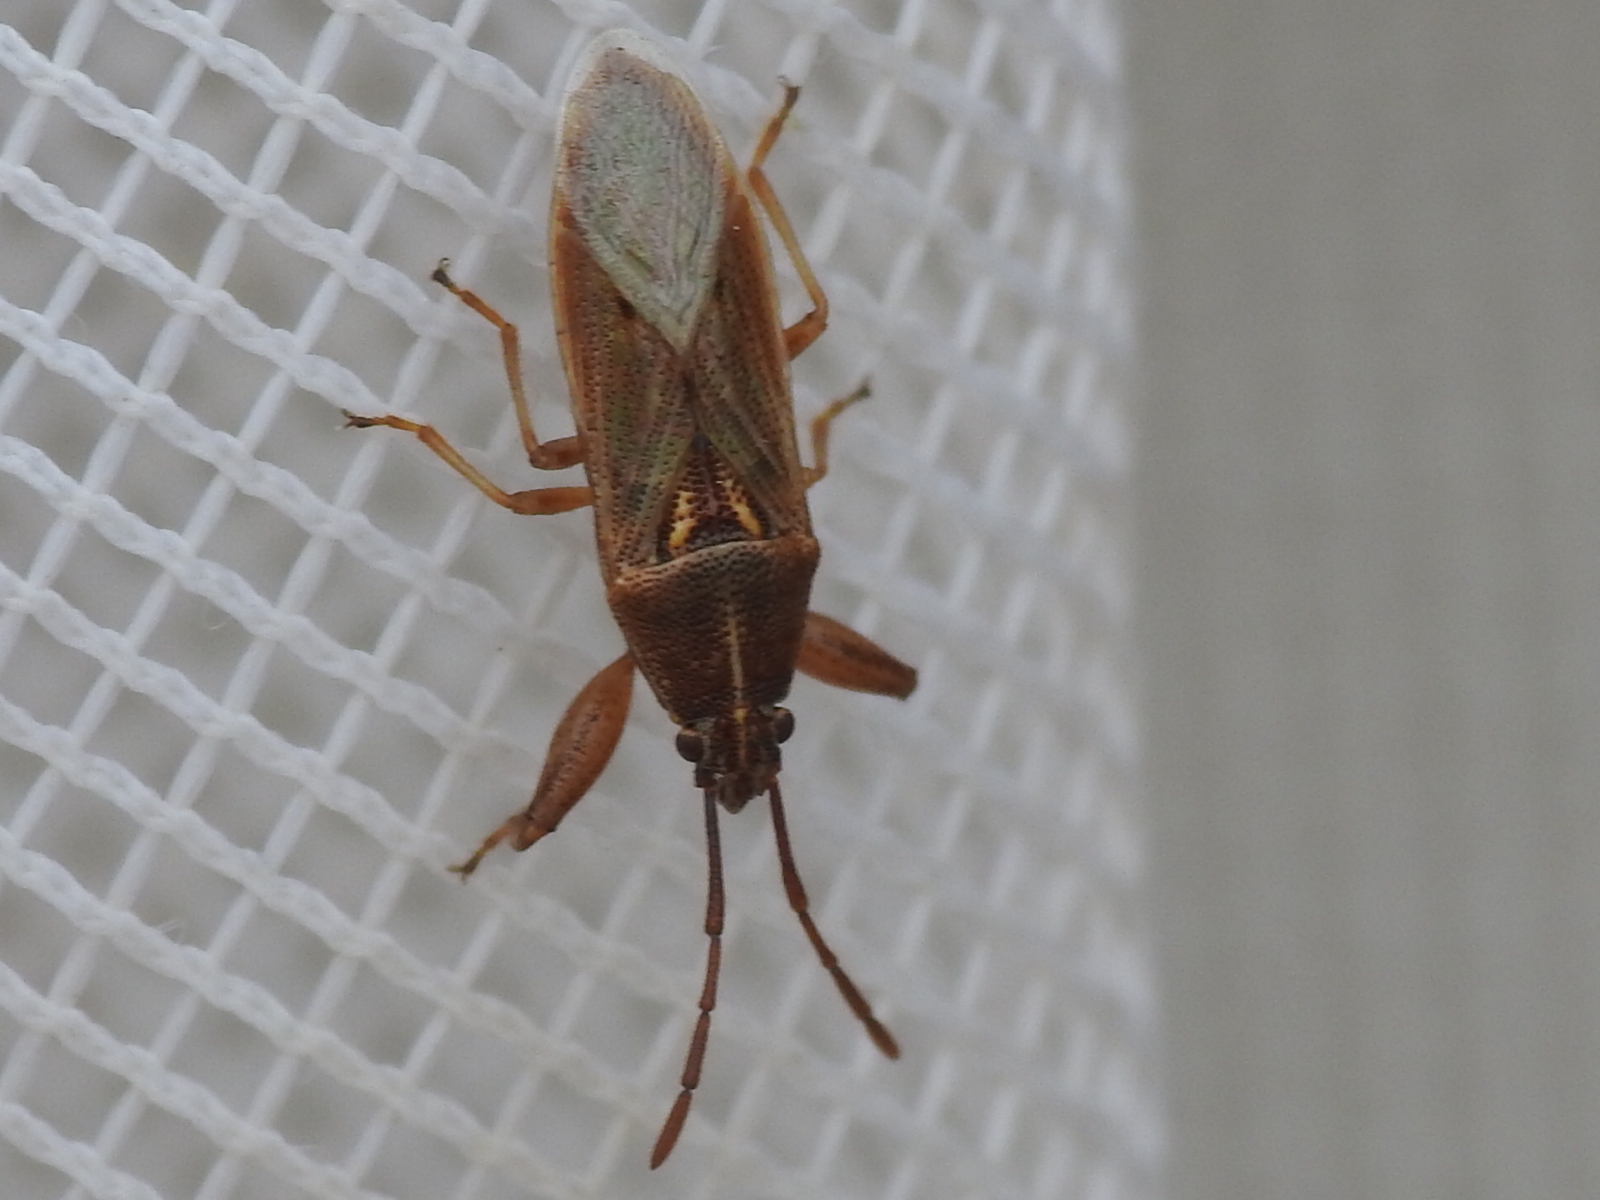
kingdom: Animalia
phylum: Arthropoda
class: Insecta
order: Hemiptera
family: Pachygronthidae
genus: Oedancala
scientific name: Oedancala crassimana
